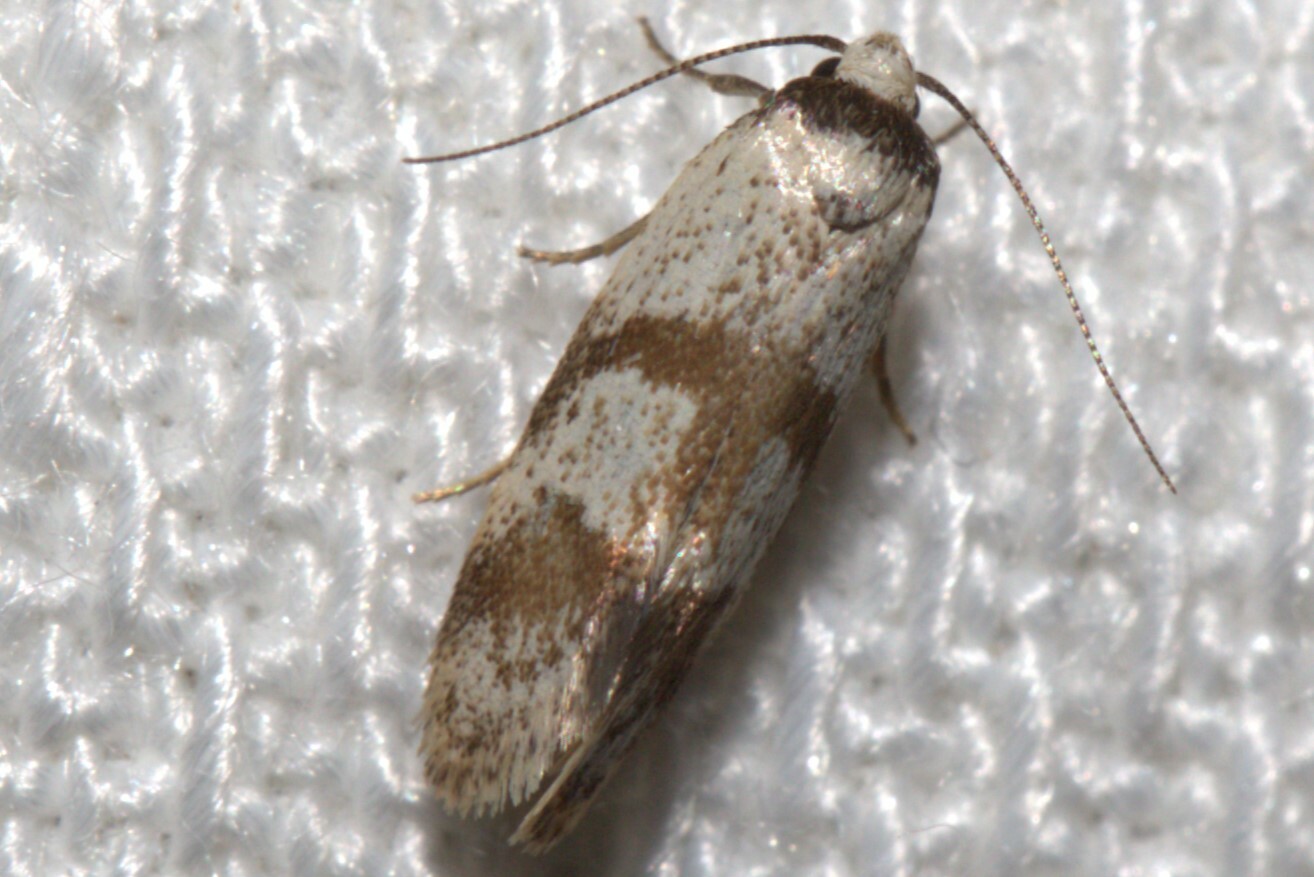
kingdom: Animalia
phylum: Arthropoda
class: Insecta
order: Lepidoptera
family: Oecophoridae
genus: Philobota
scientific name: Philobota curvilinea
